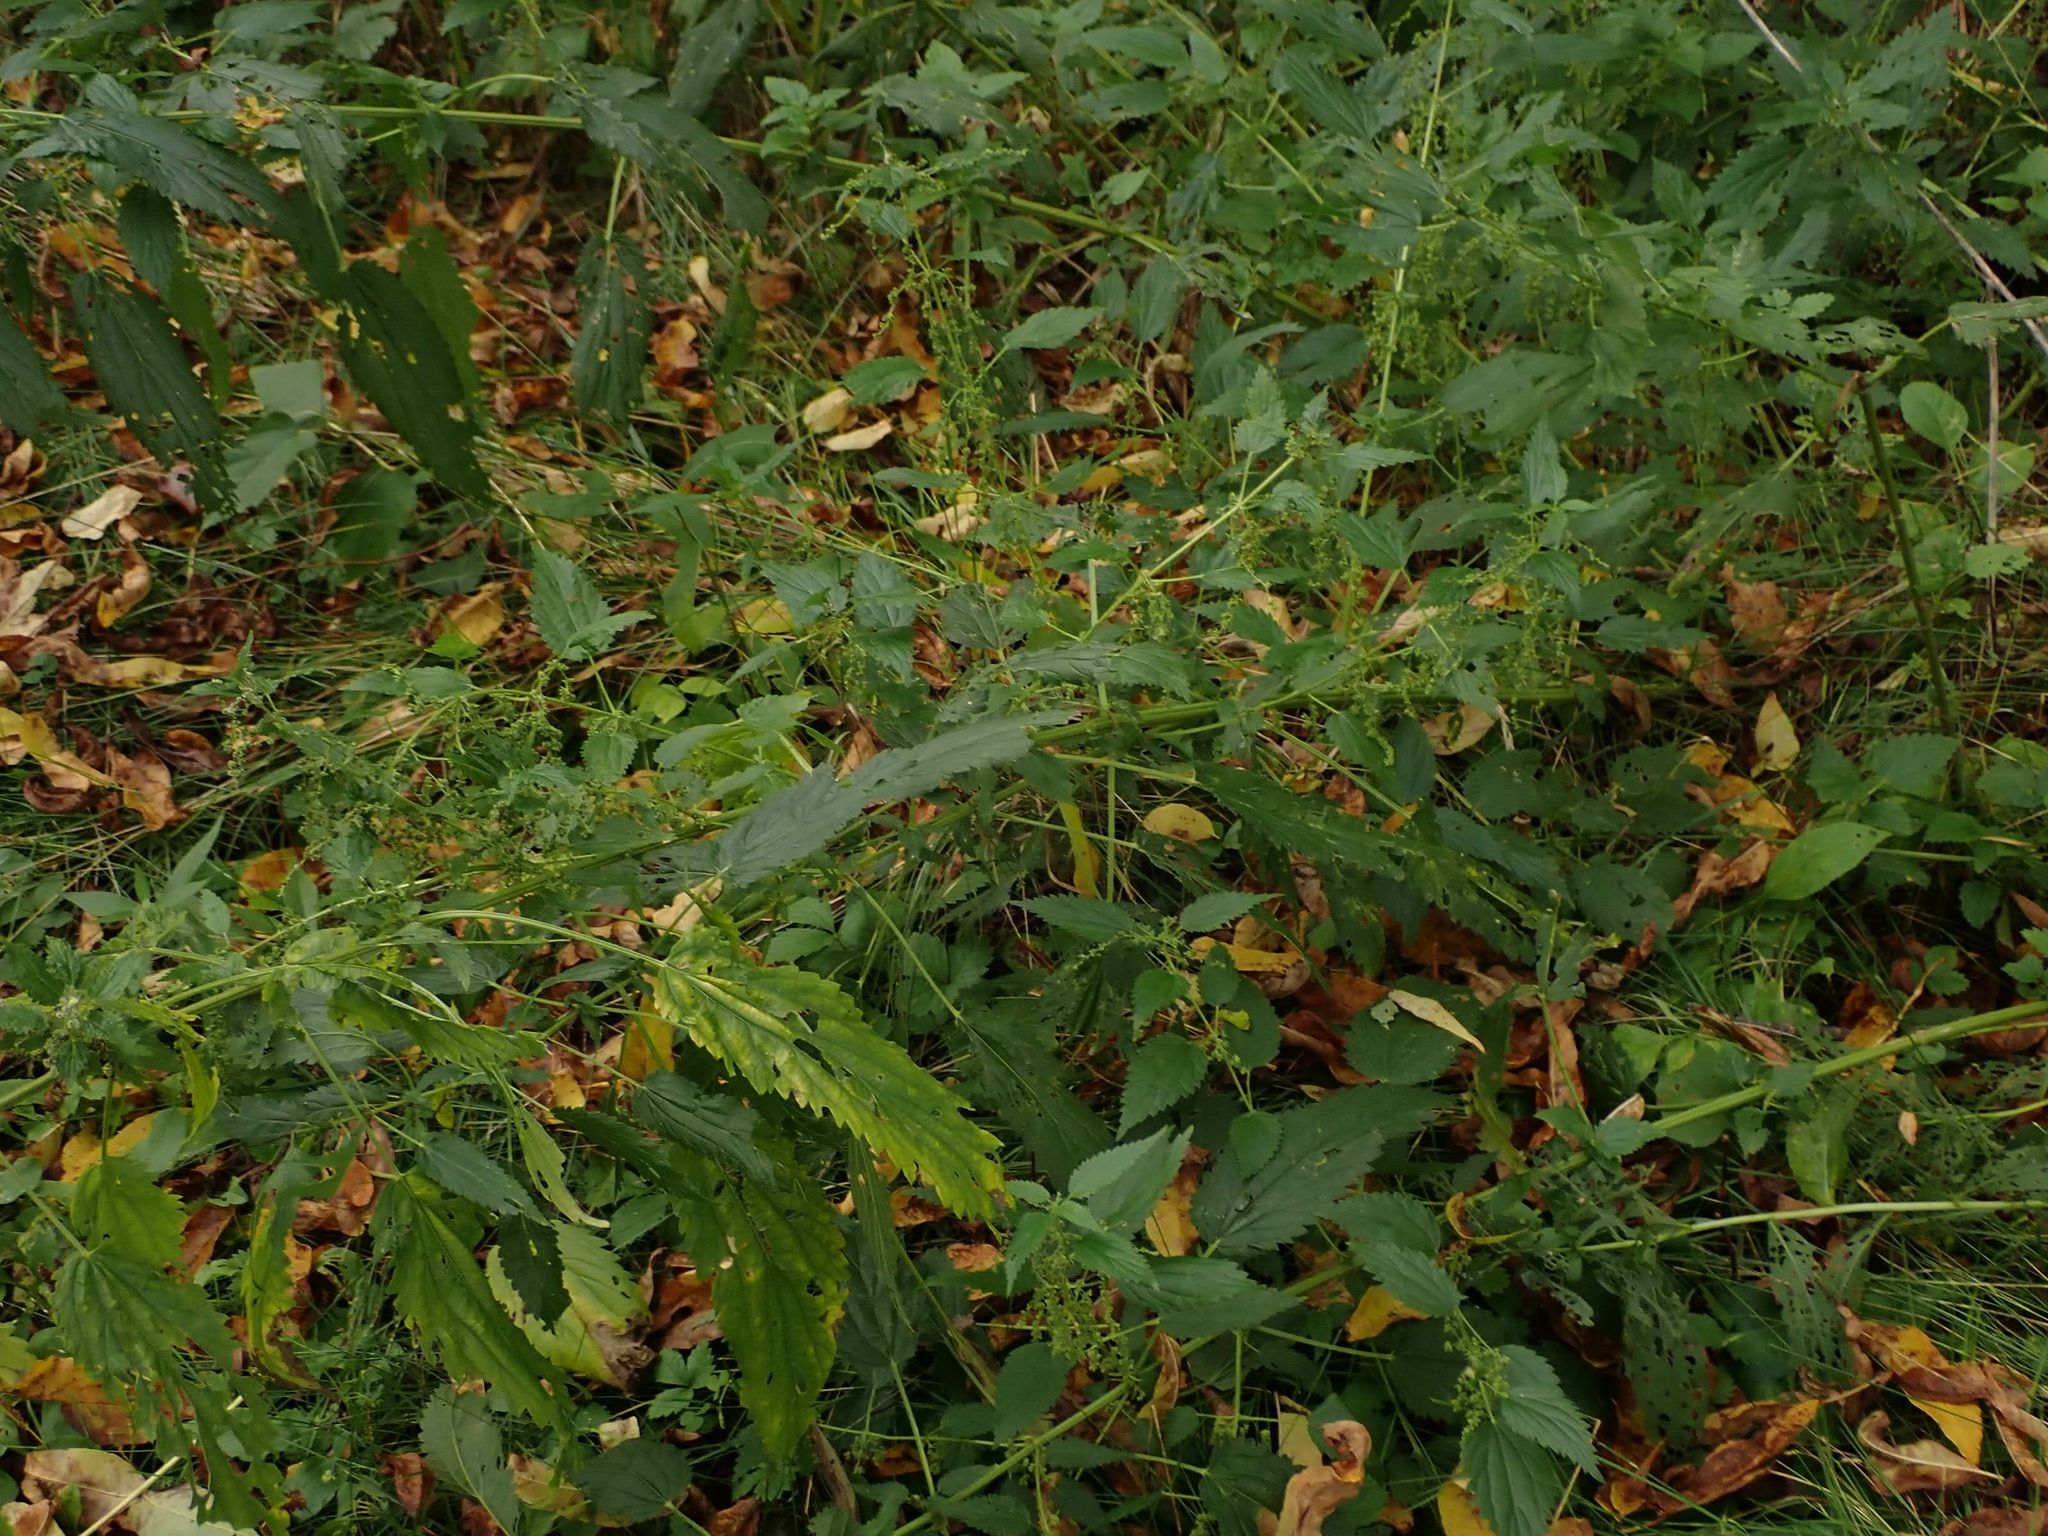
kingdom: Plantae
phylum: Tracheophyta
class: Magnoliopsida
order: Rosales
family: Urticaceae
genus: Urtica
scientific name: Urtica gracilis
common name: Slender stinging nettle
